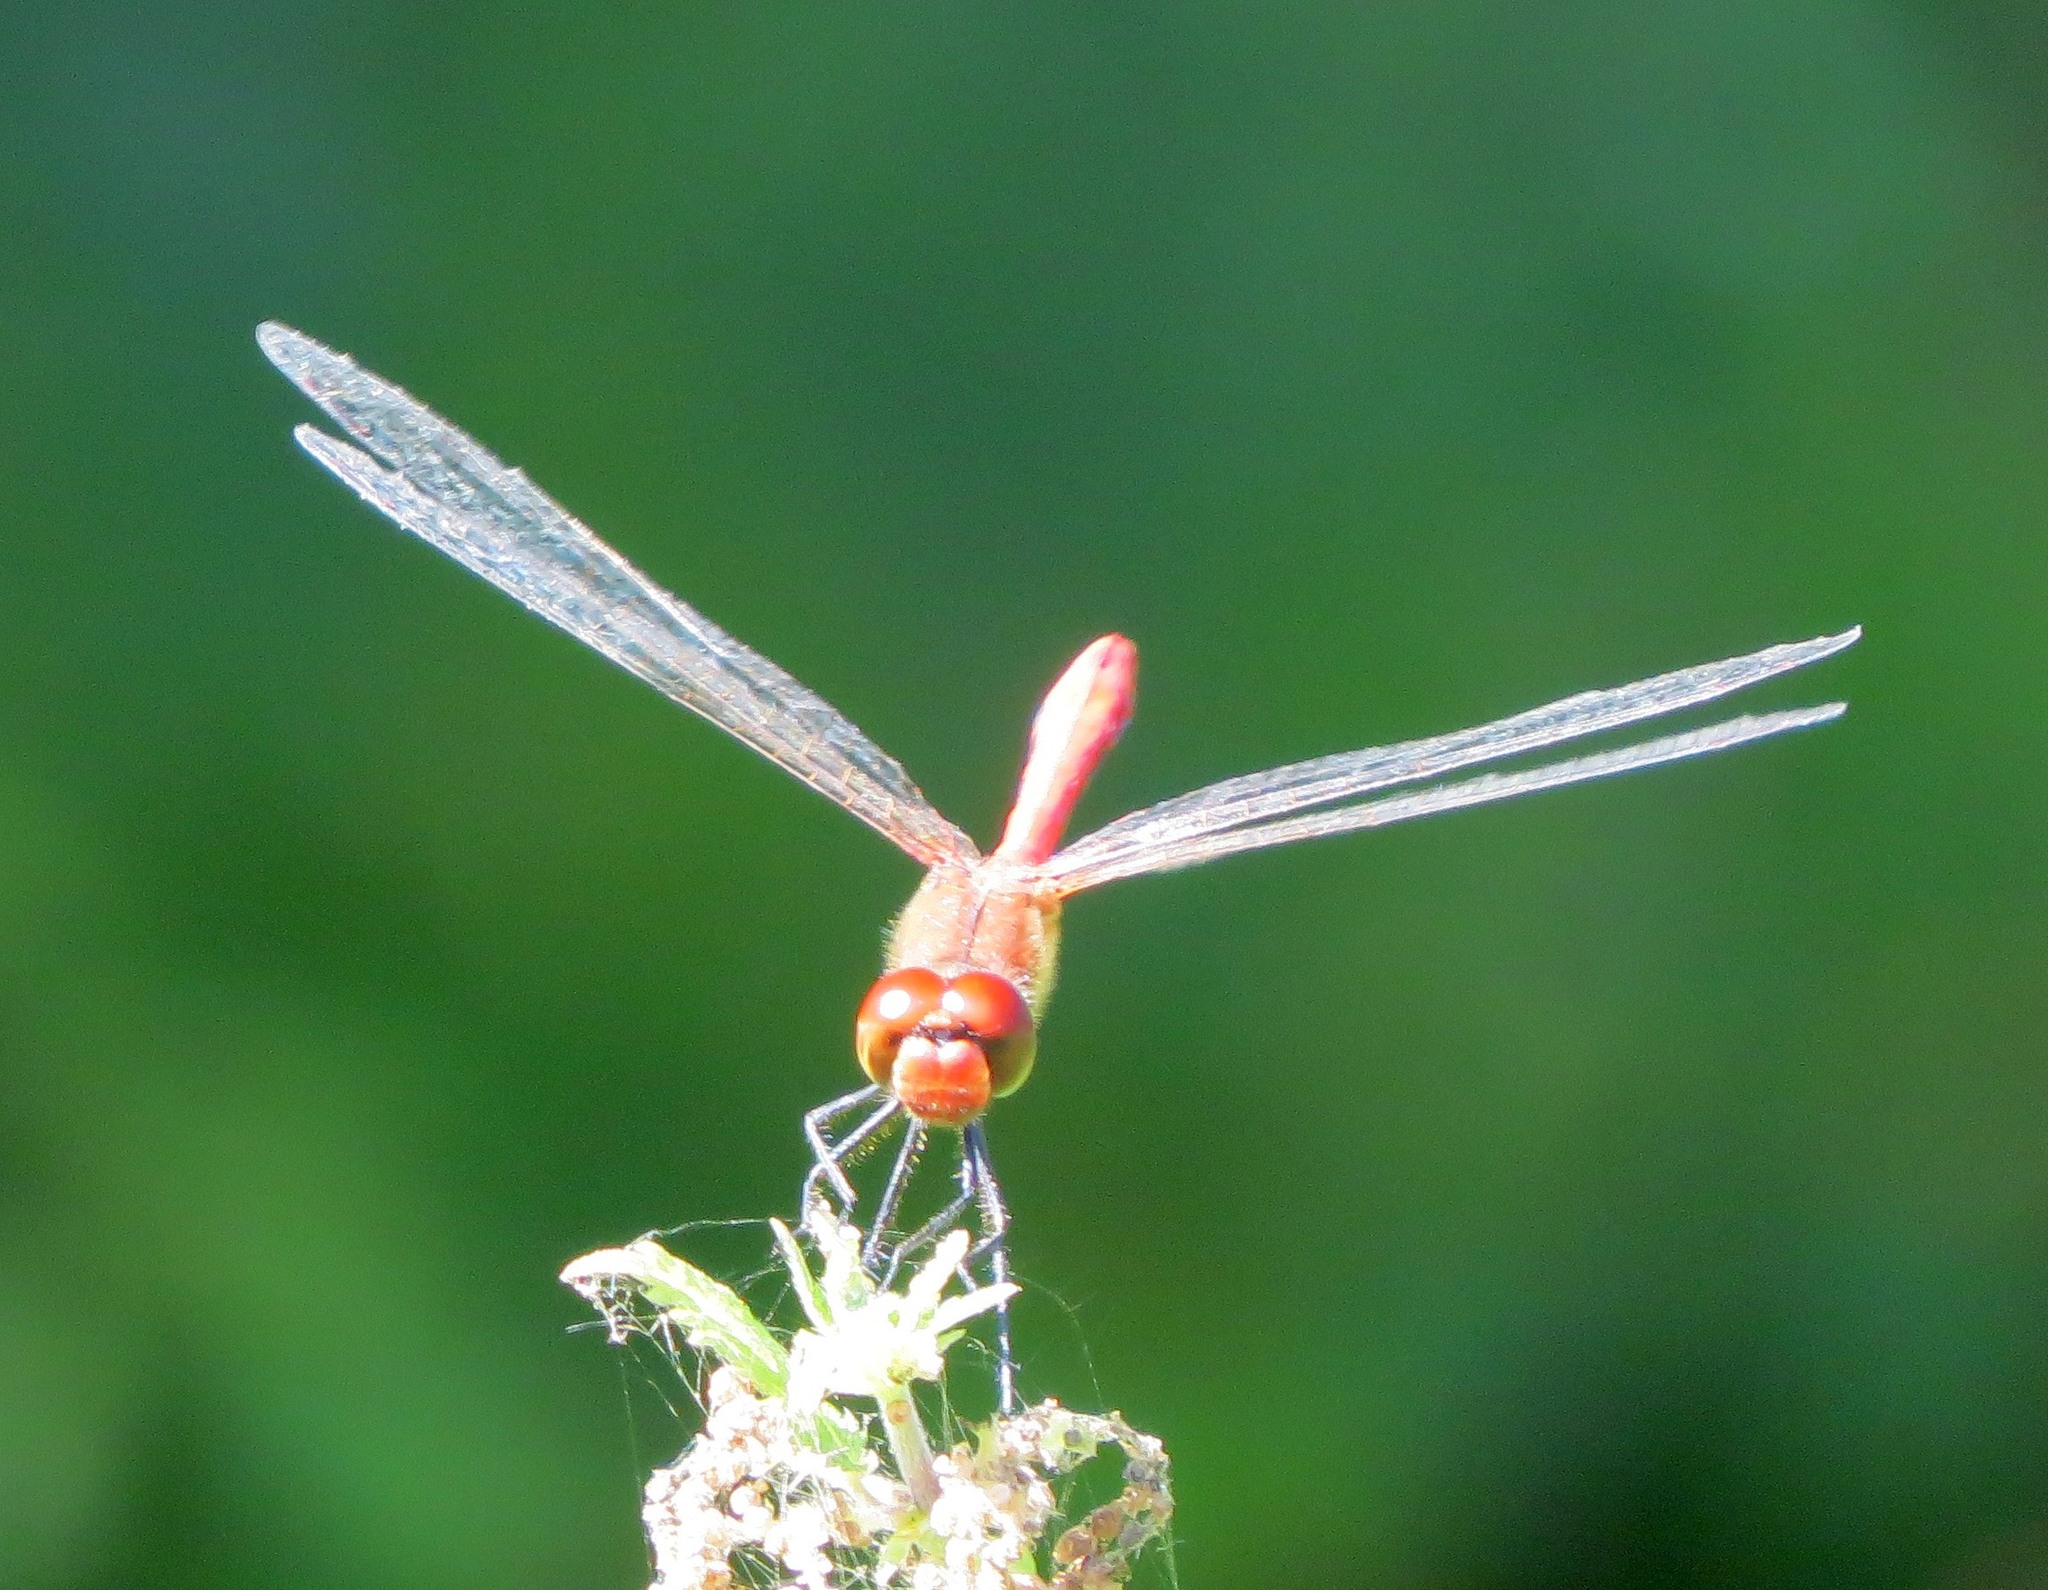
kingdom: Animalia
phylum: Arthropoda
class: Insecta
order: Odonata
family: Libellulidae
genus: Sympetrum
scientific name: Sympetrum sanguineum
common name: Ruddy darter
